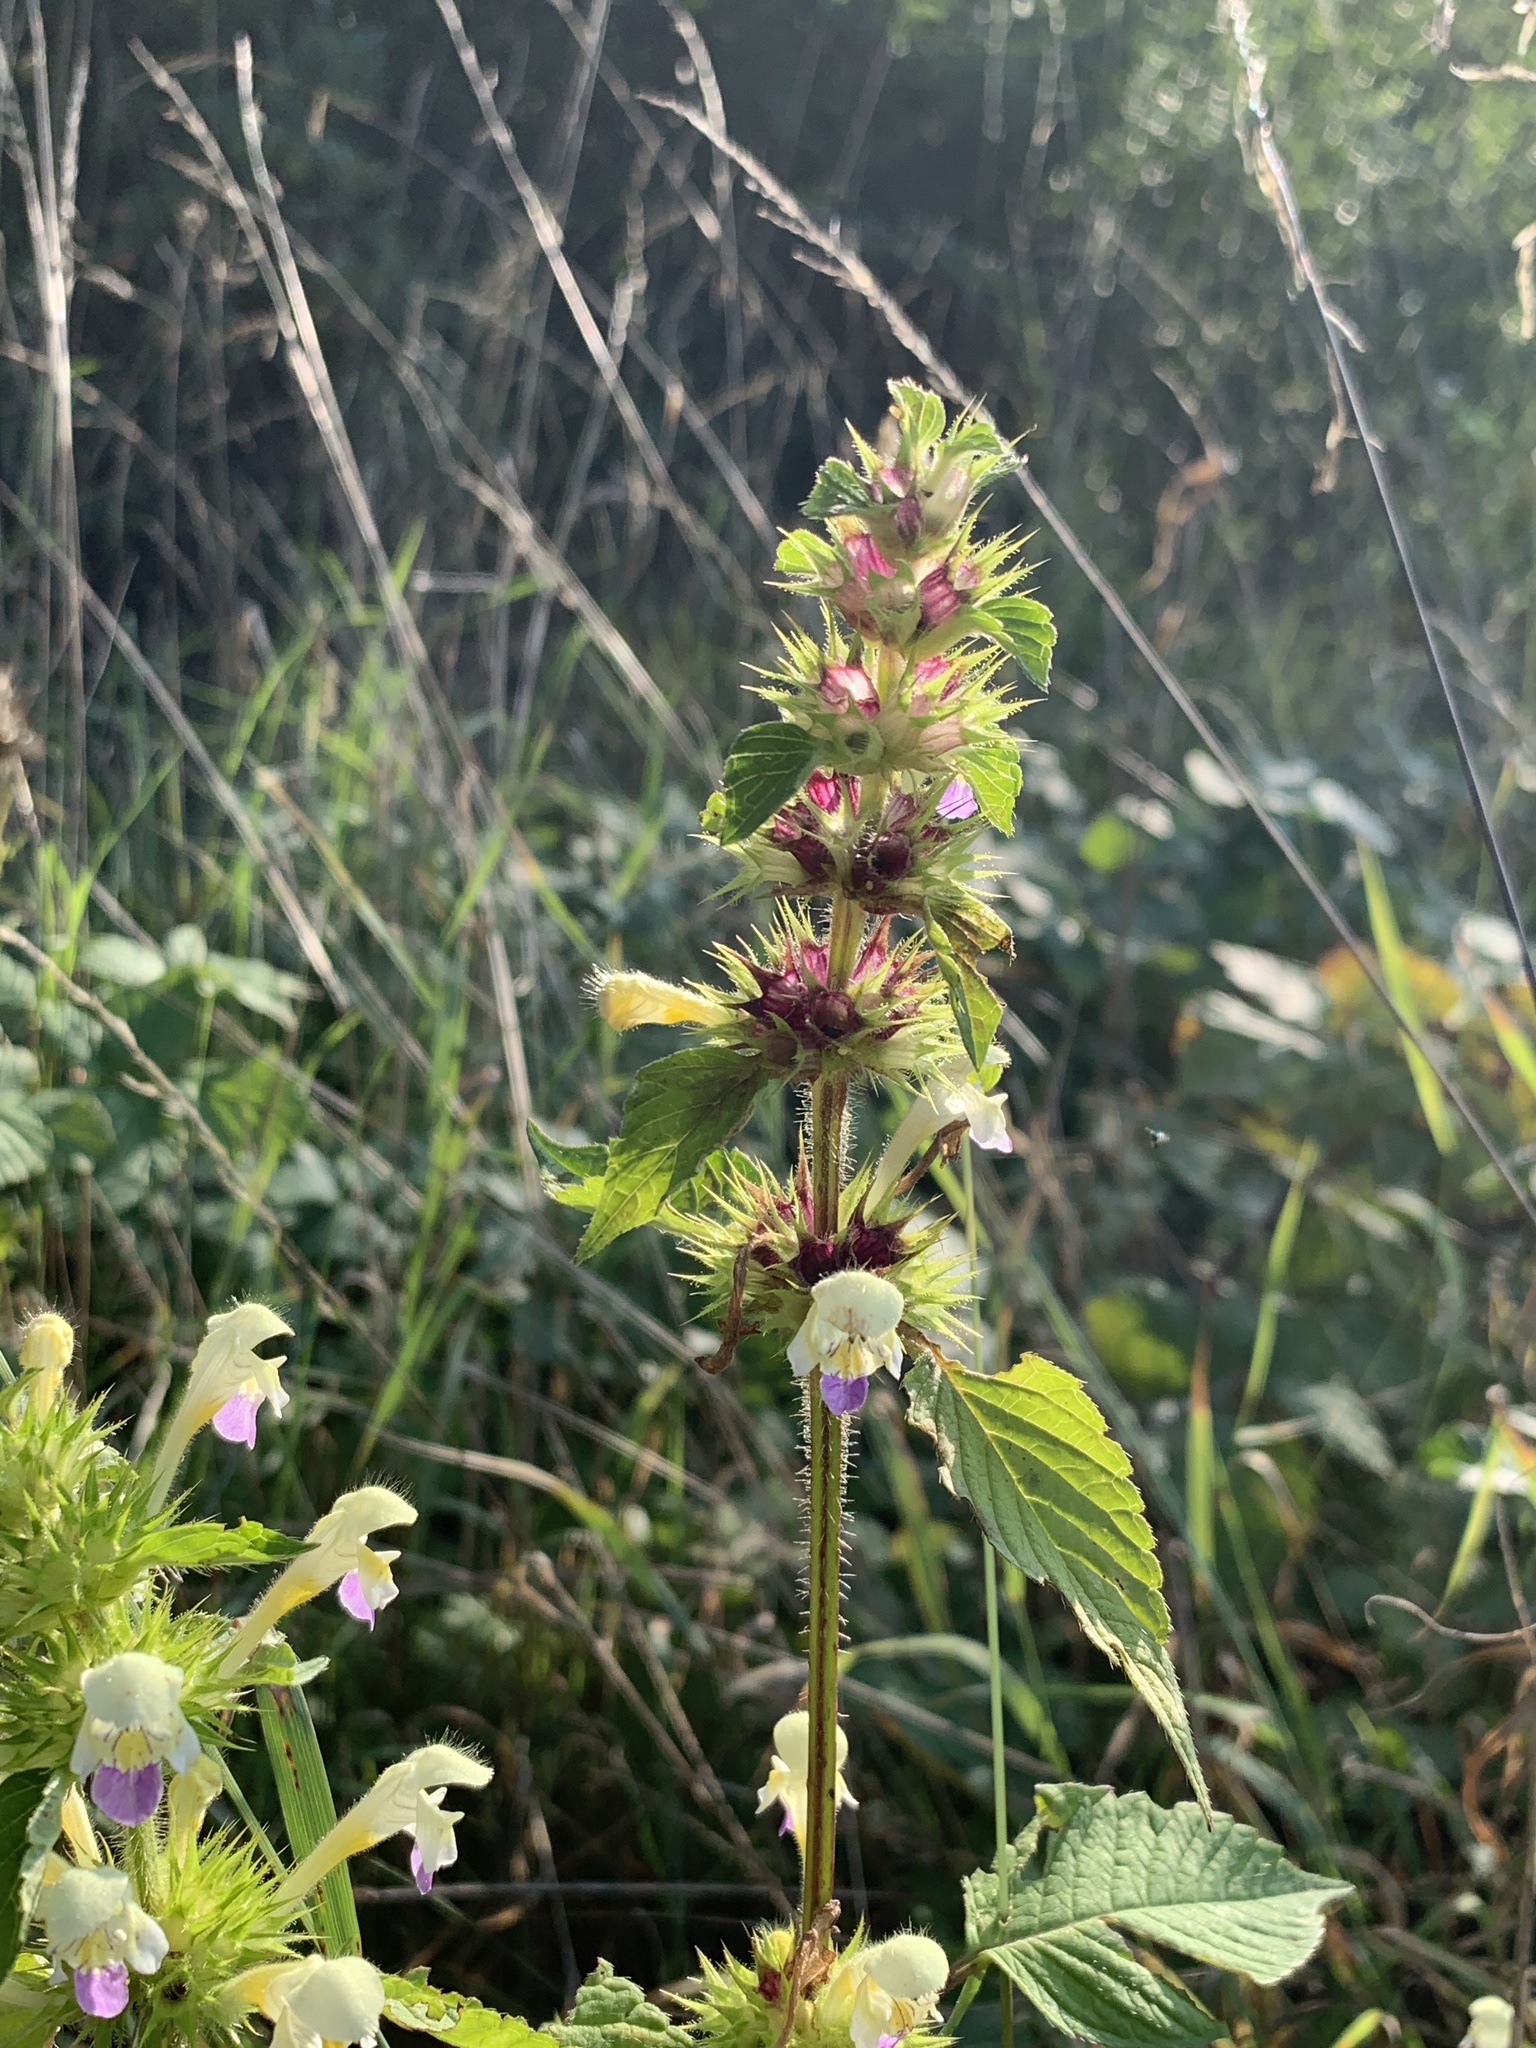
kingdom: Plantae
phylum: Tracheophyta
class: Magnoliopsida
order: Lamiales
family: Lamiaceae
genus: Galeopsis
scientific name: Galeopsis speciosa
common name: Large-flowered hemp-nettle
